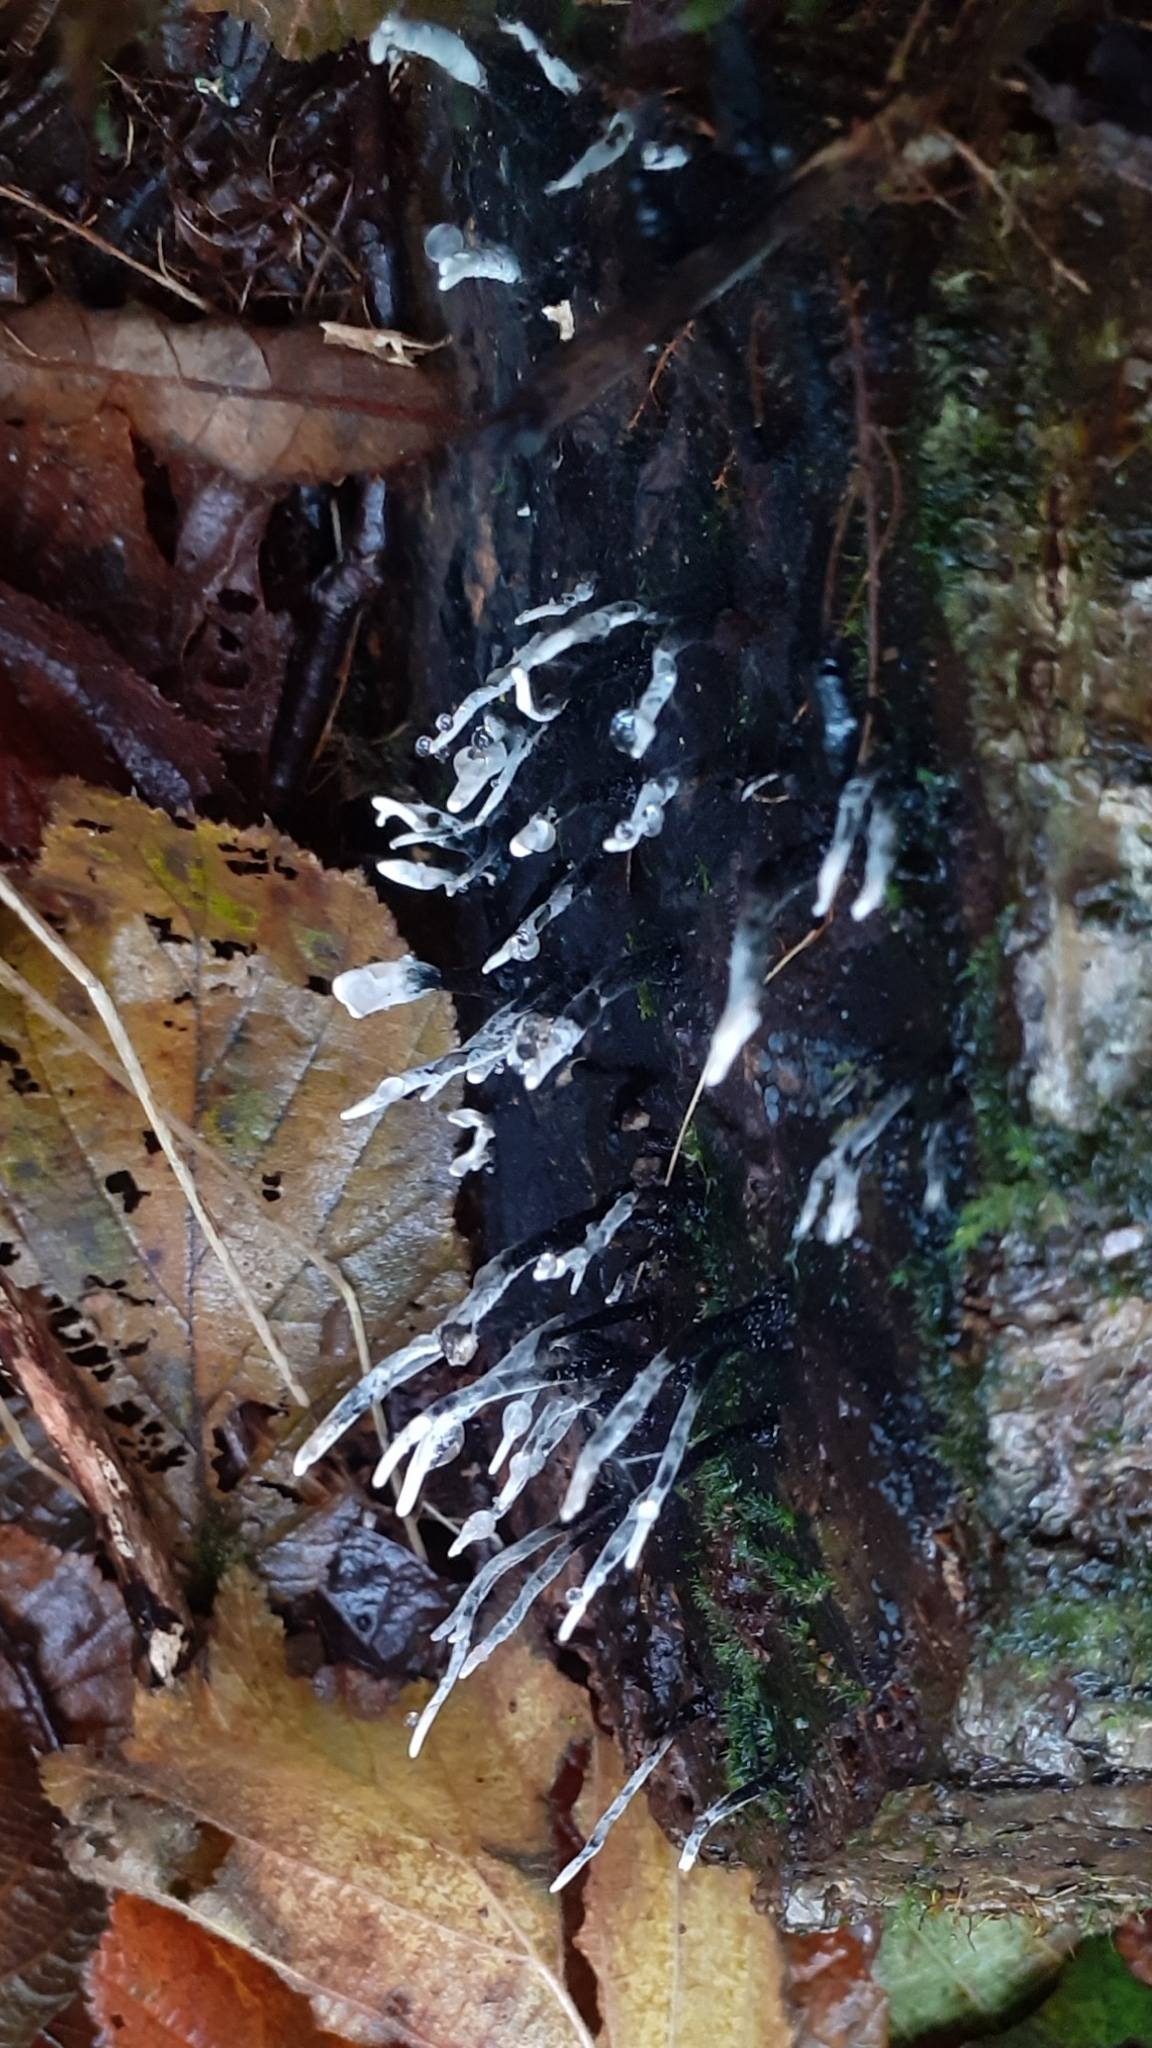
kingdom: Fungi
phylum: Ascomycota
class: Sordariomycetes
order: Xylariales
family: Xylariaceae
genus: Xylaria
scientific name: Xylaria hypoxylon
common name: Candle-snuff fungus
